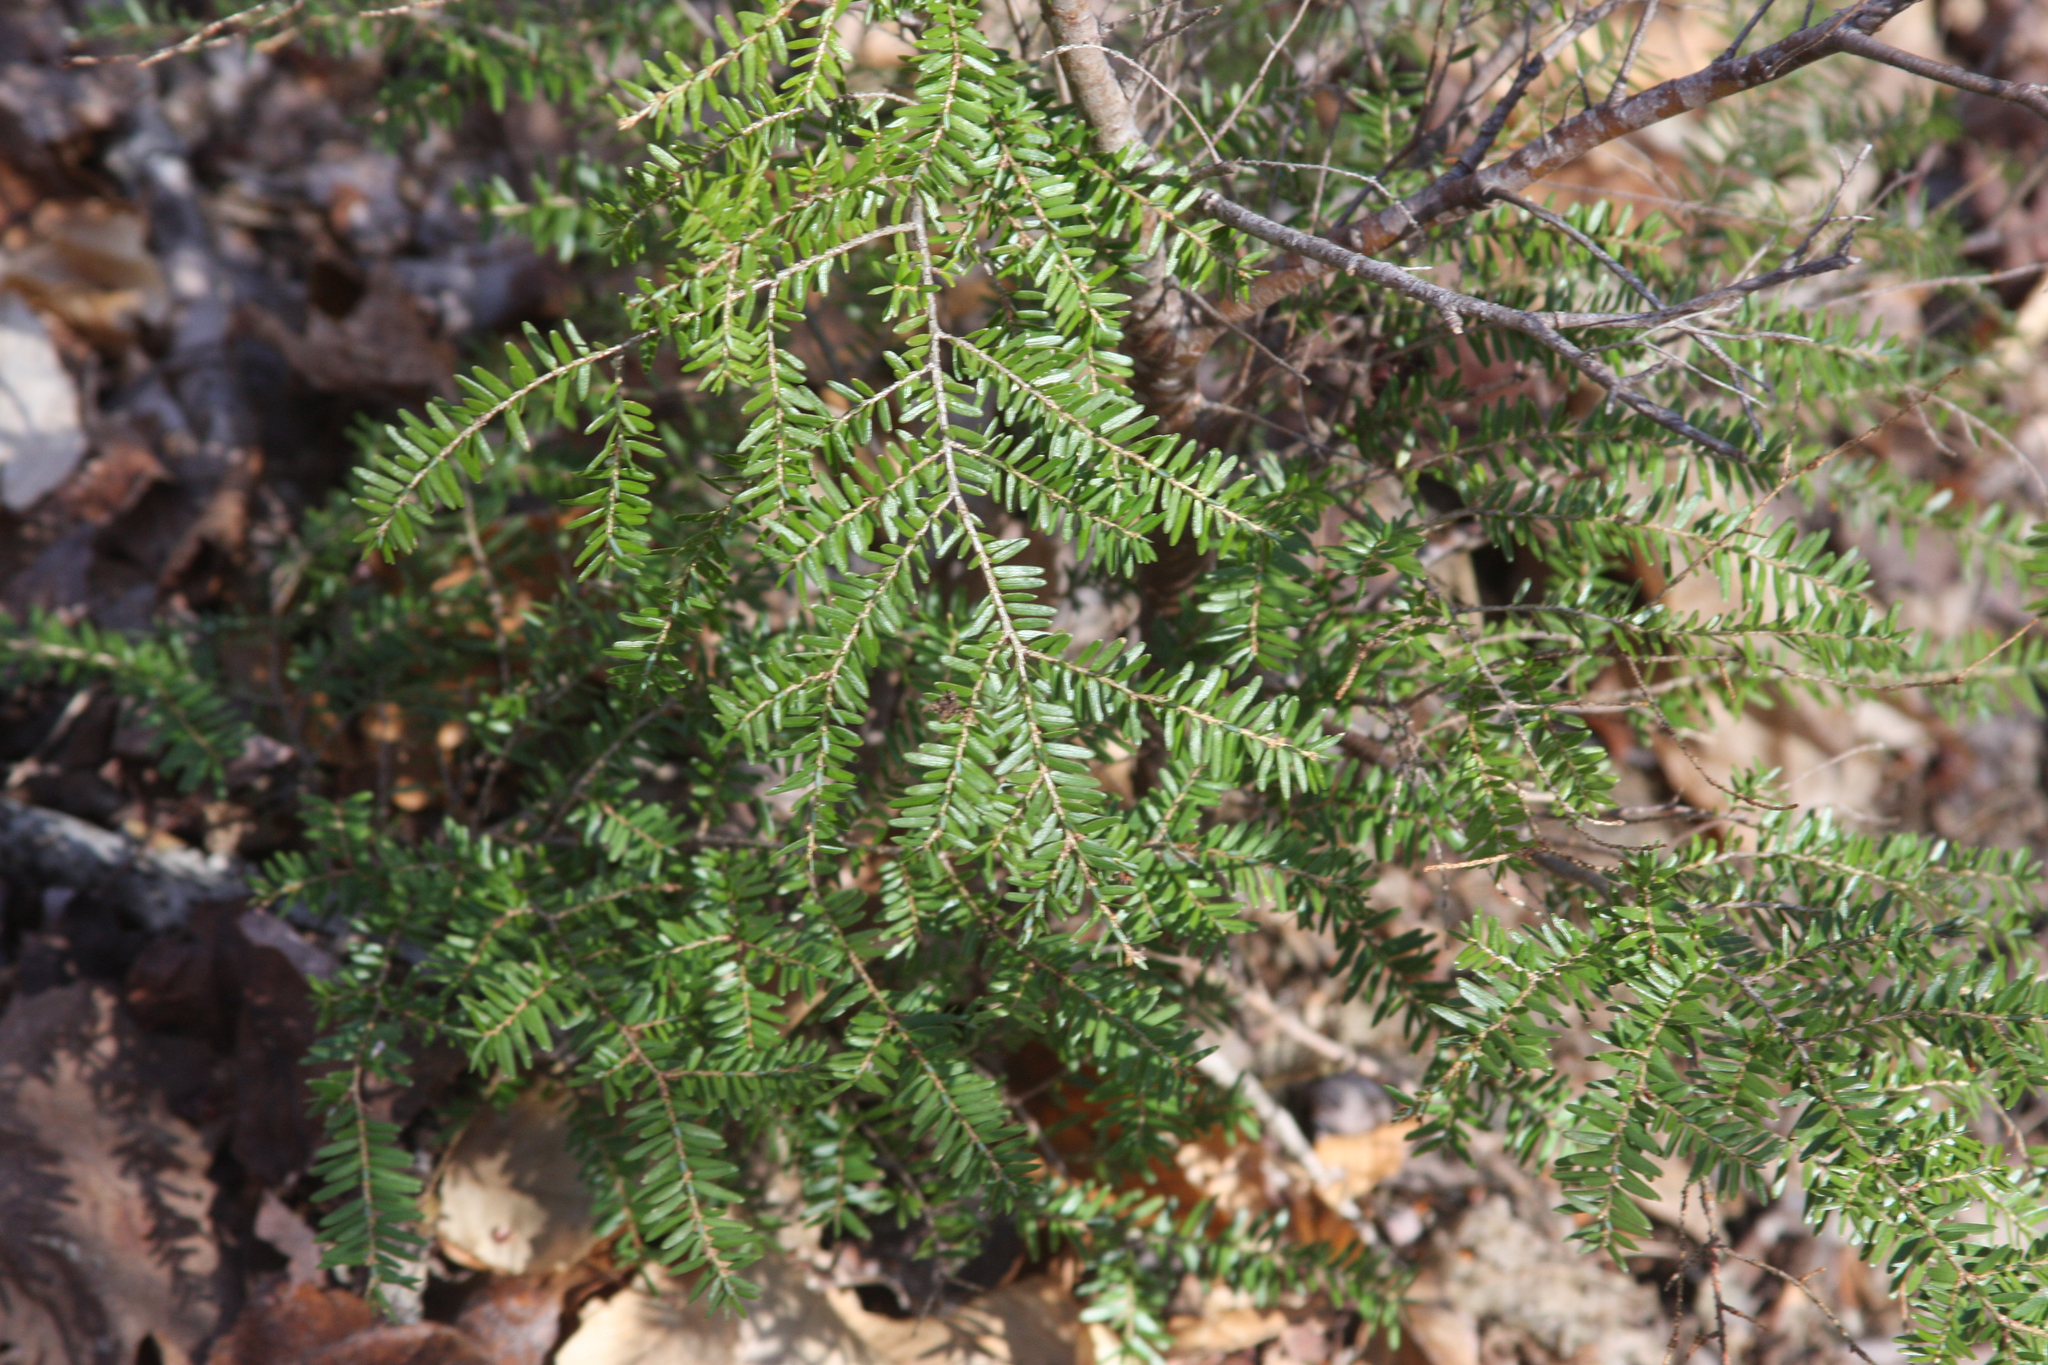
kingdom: Plantae
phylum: Tracheophyta
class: Pinopsida
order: Pinales
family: Pinaceae
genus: Tsuga
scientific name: Tsuga canadensis
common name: Eastern hemlock
